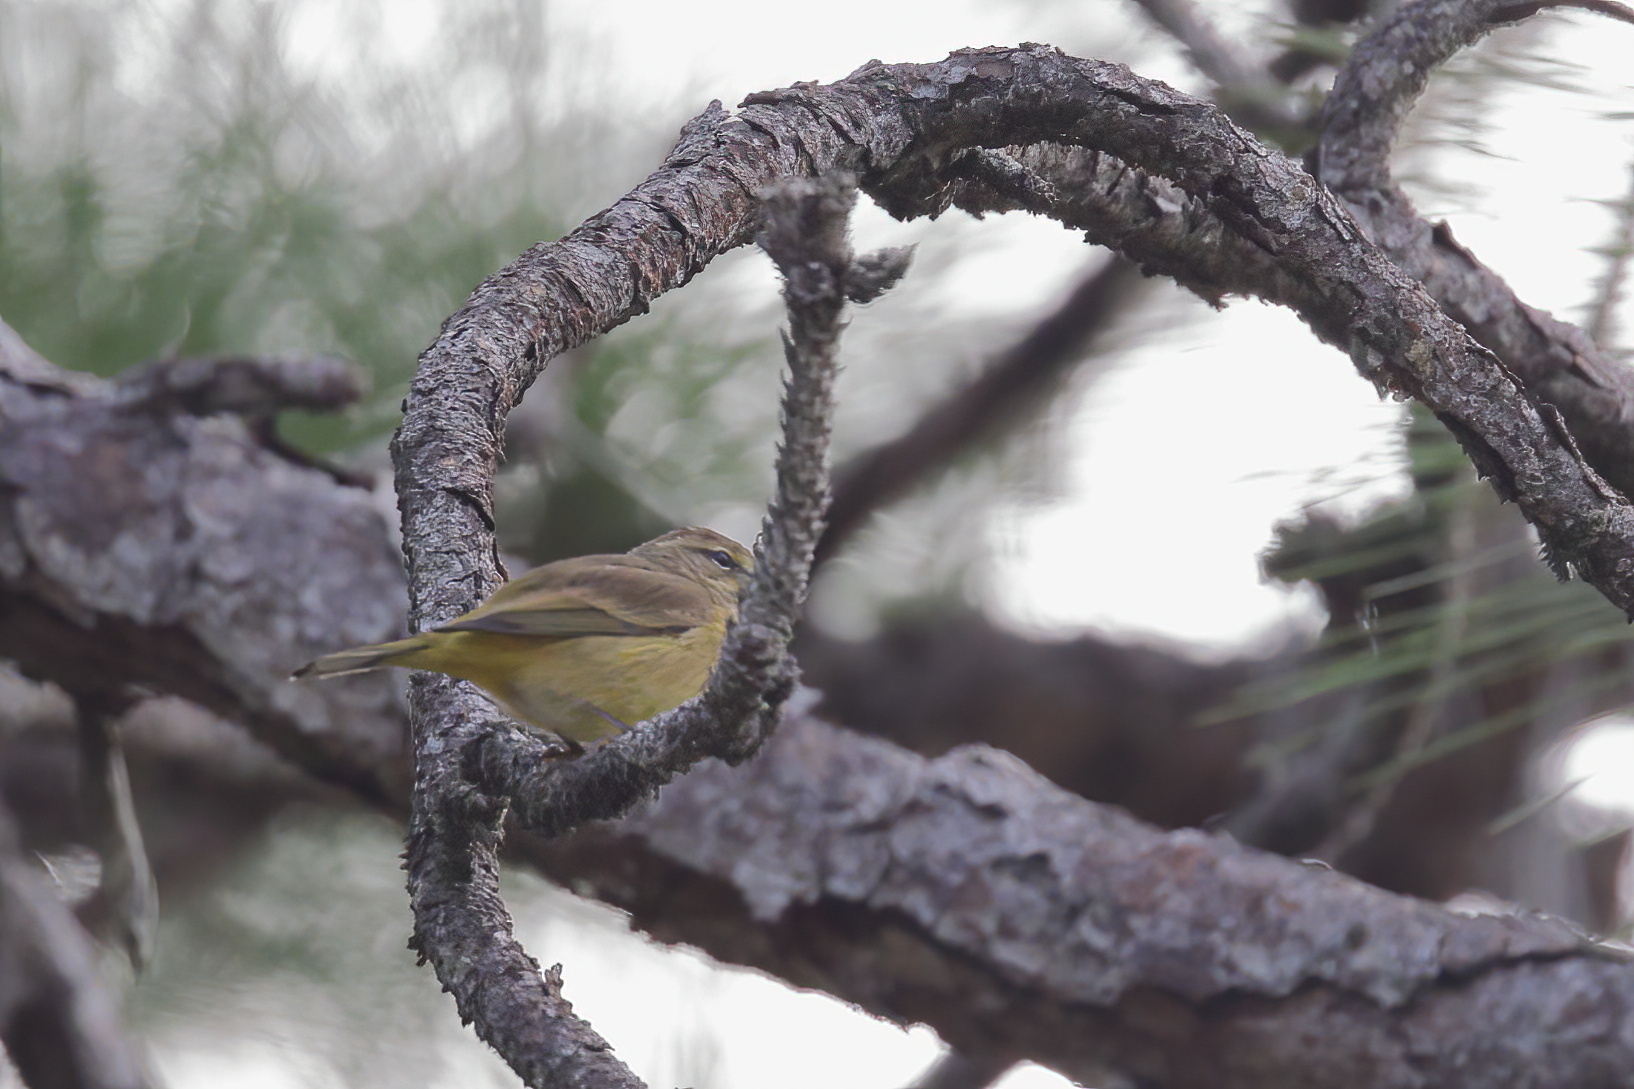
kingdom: Animalia
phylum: Chordata
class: Aves
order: Passeriformes
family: Parulidae
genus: Setophaga
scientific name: Setophaga palmarum
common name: Palm warbler
